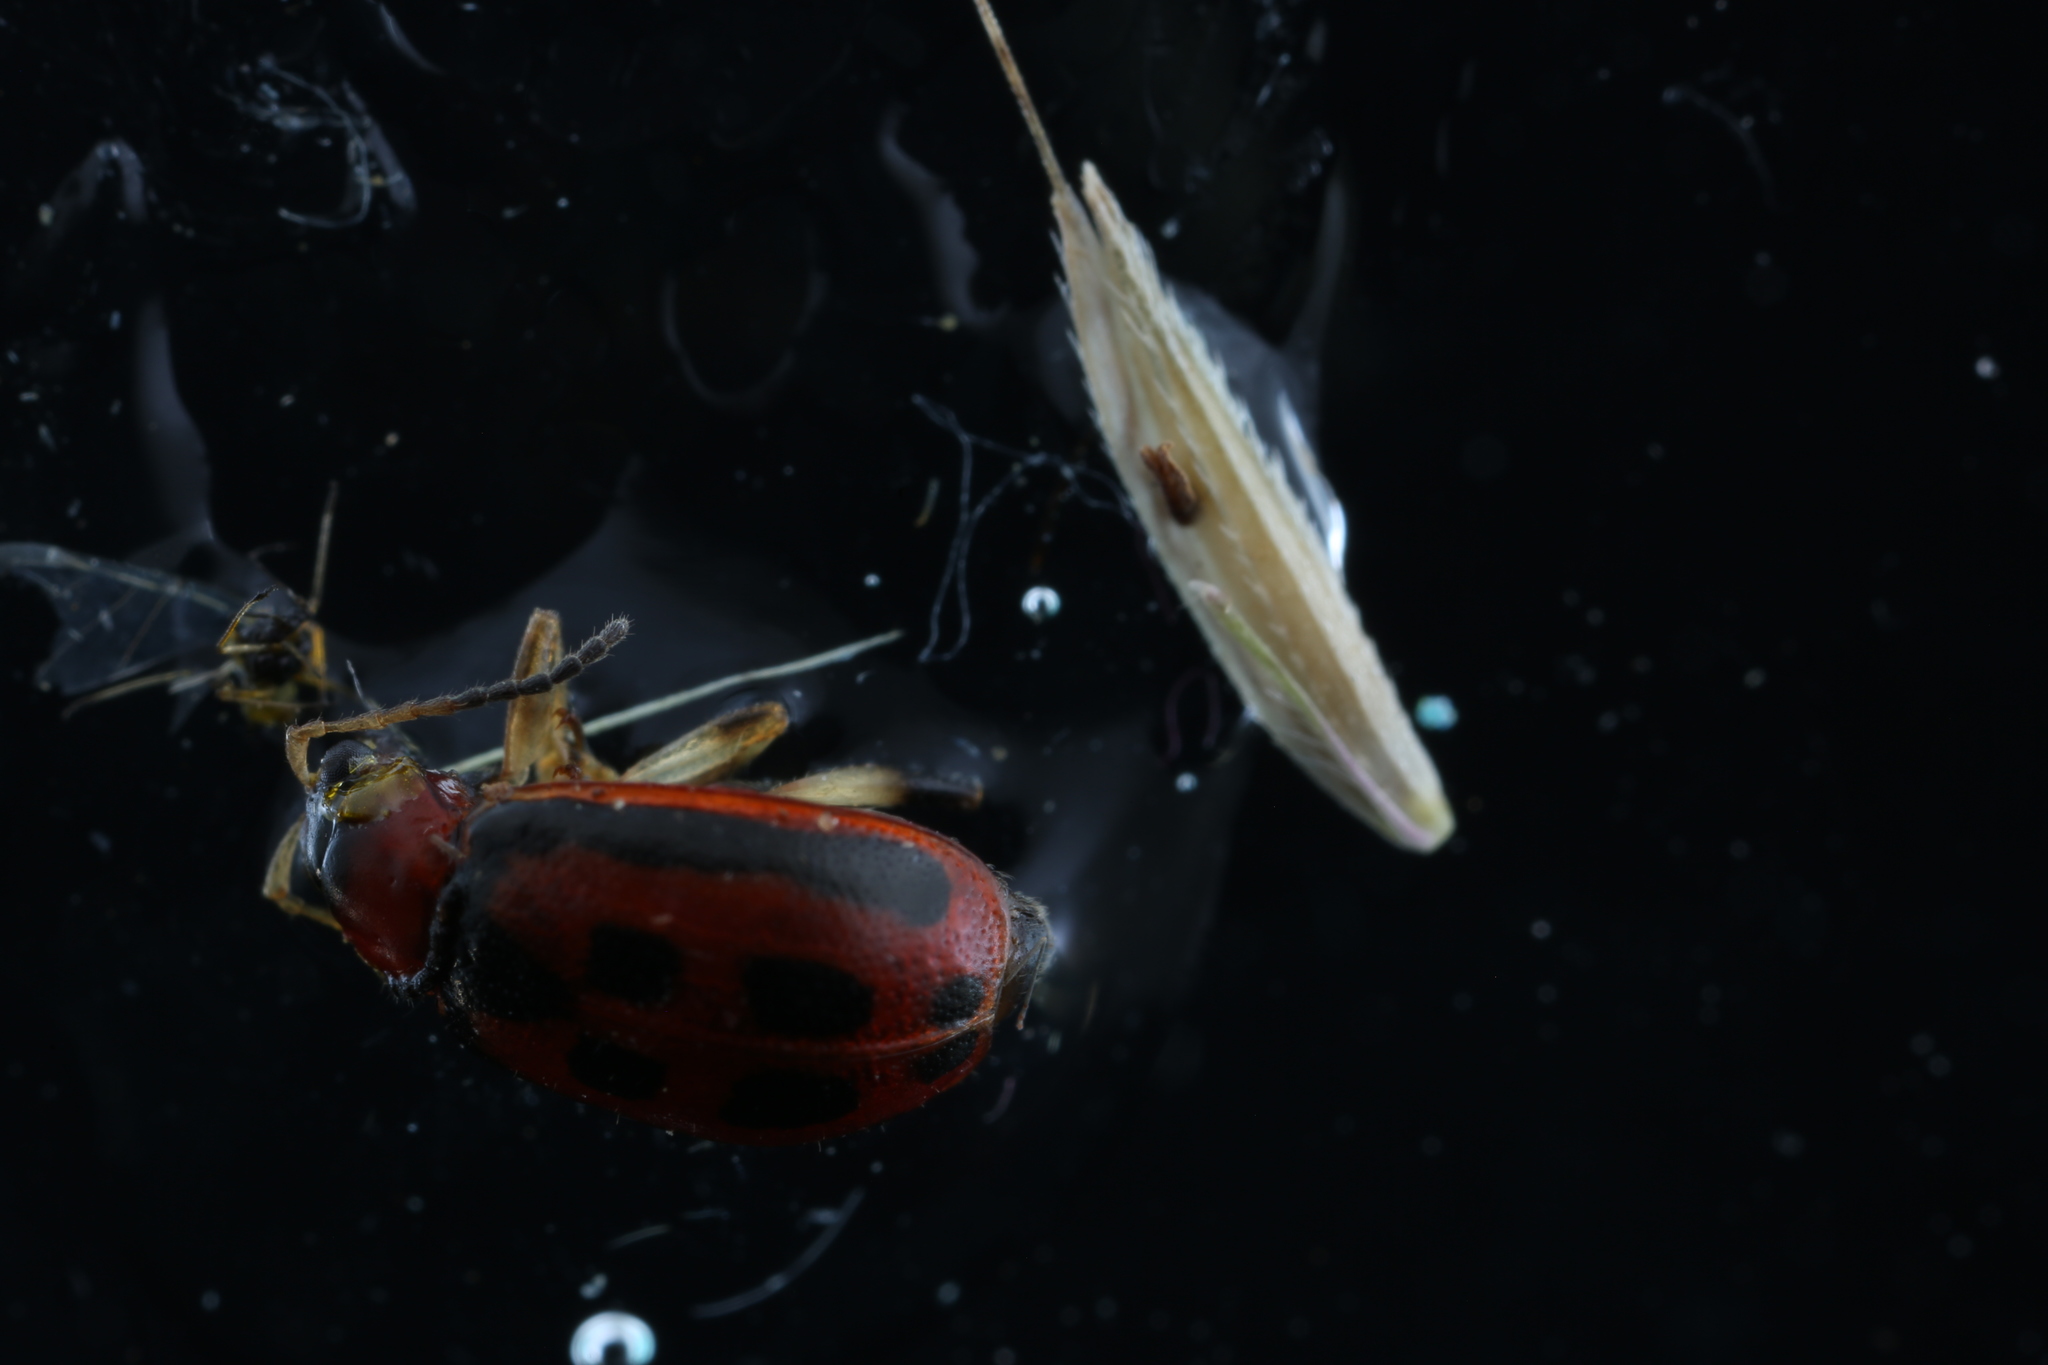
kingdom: Animalia
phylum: Arthropoda
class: Insecta
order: Coleoptera
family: Chrysomelidae
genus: Cerotoma
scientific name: Cerotoma trifurcata
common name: Bean leaf beetle
